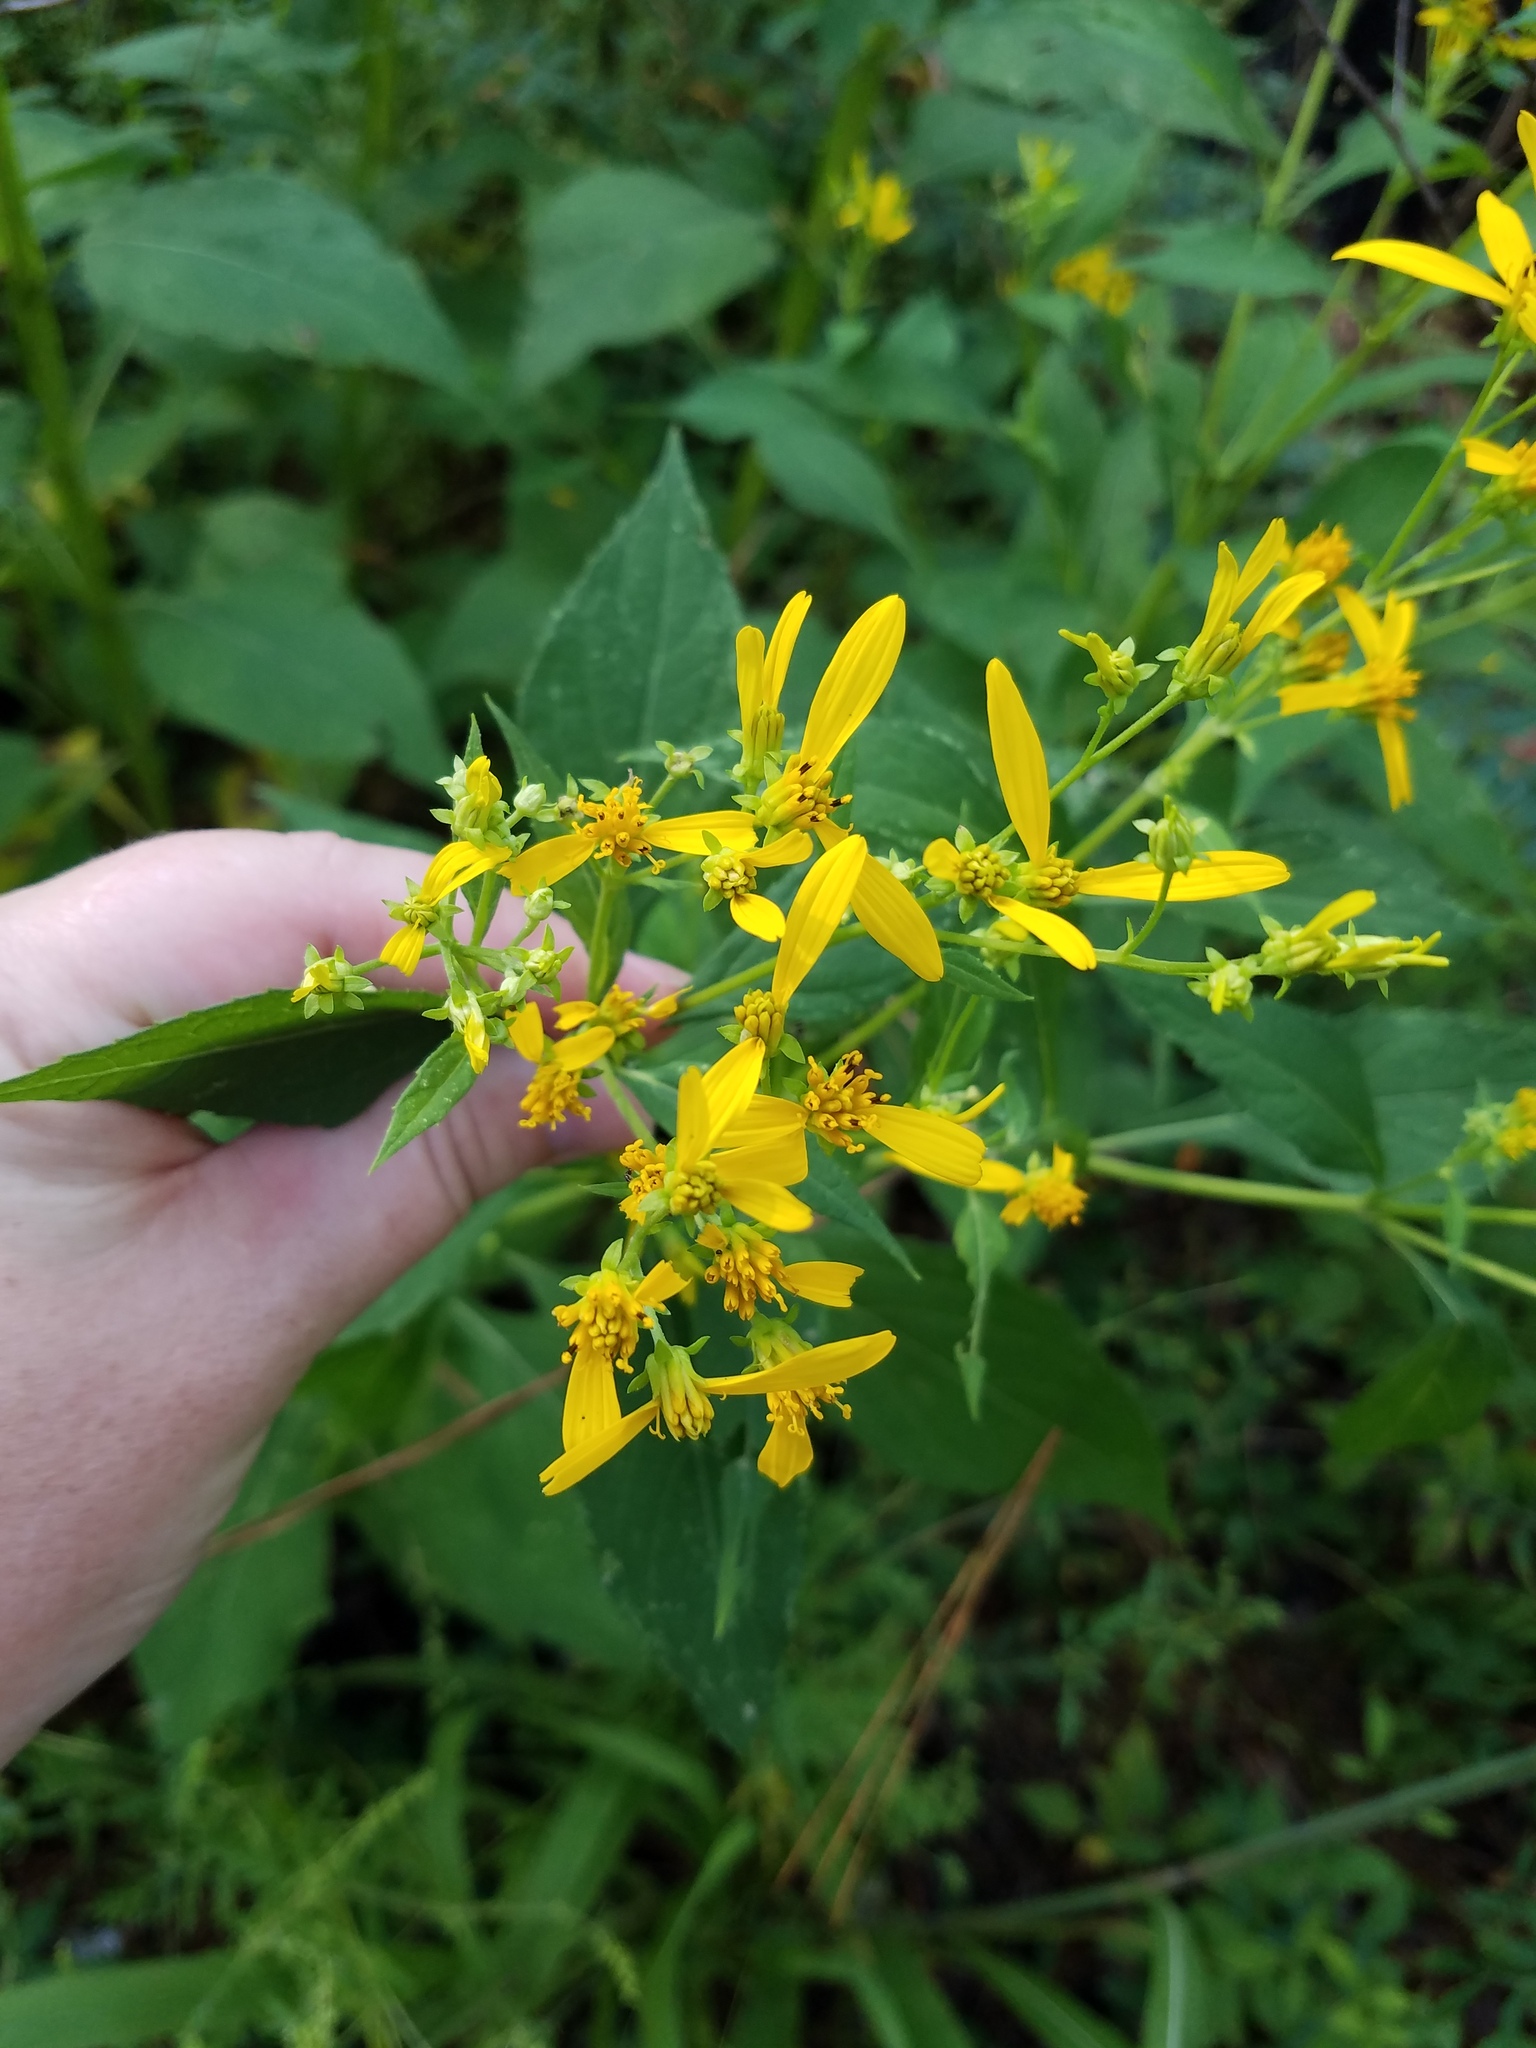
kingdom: Plantae
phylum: Tracheophyta
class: Magnoliopsida
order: Asterales
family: Asteraceae
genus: Verbesina
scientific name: Verbesina occidentalis
